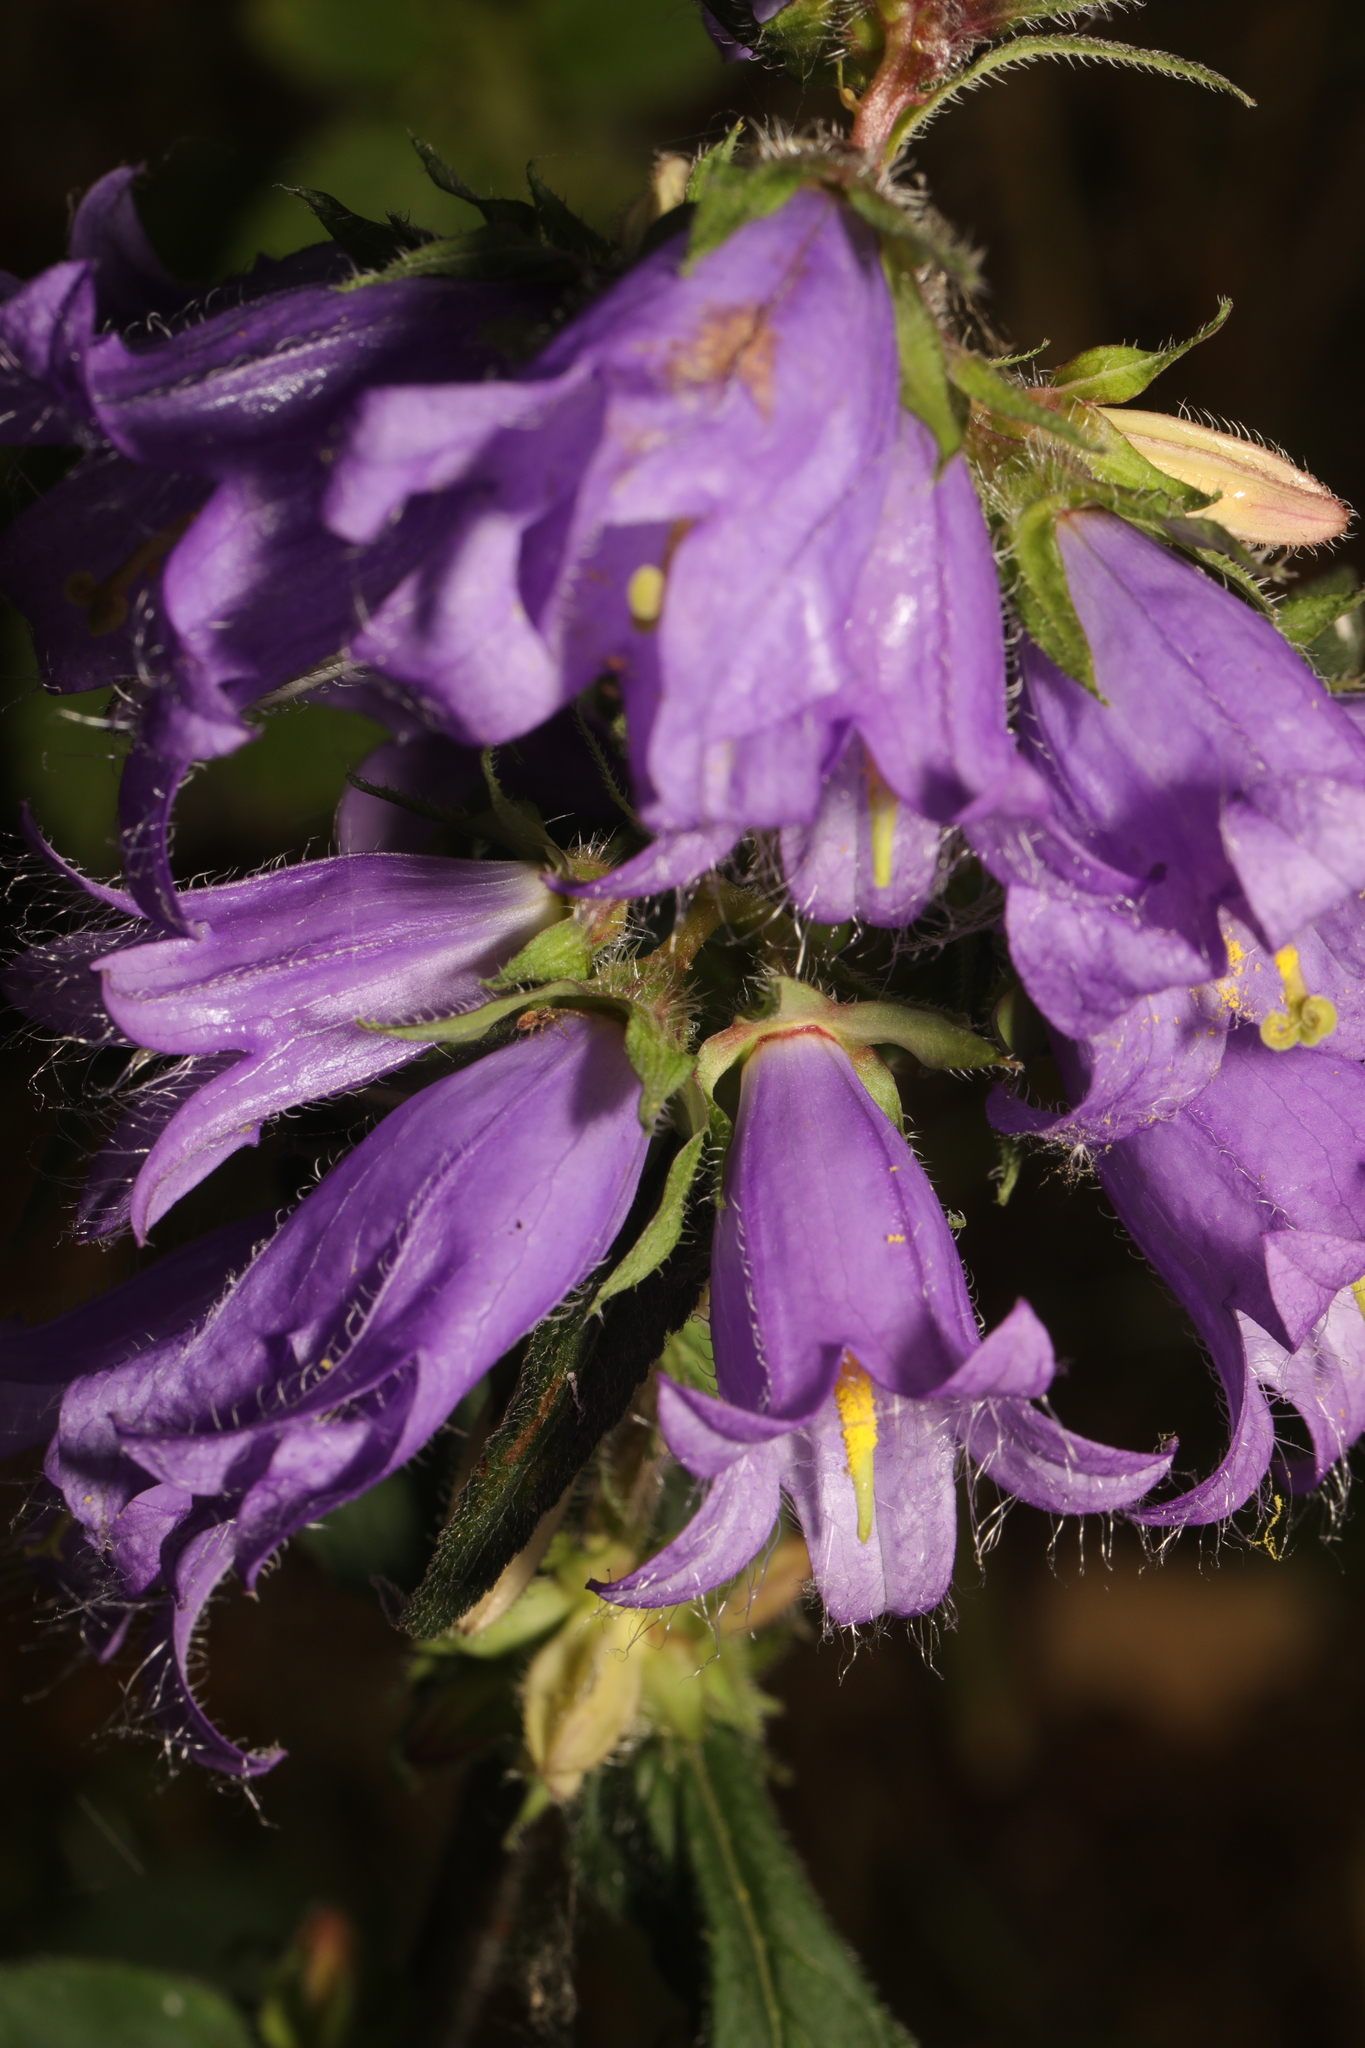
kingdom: Plantae
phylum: Tracheophyta
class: Magnoliopsida
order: Asterales
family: Campanulaceae
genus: Campanula
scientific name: Campanula trachelium
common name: Nettle-leaved bellflower
